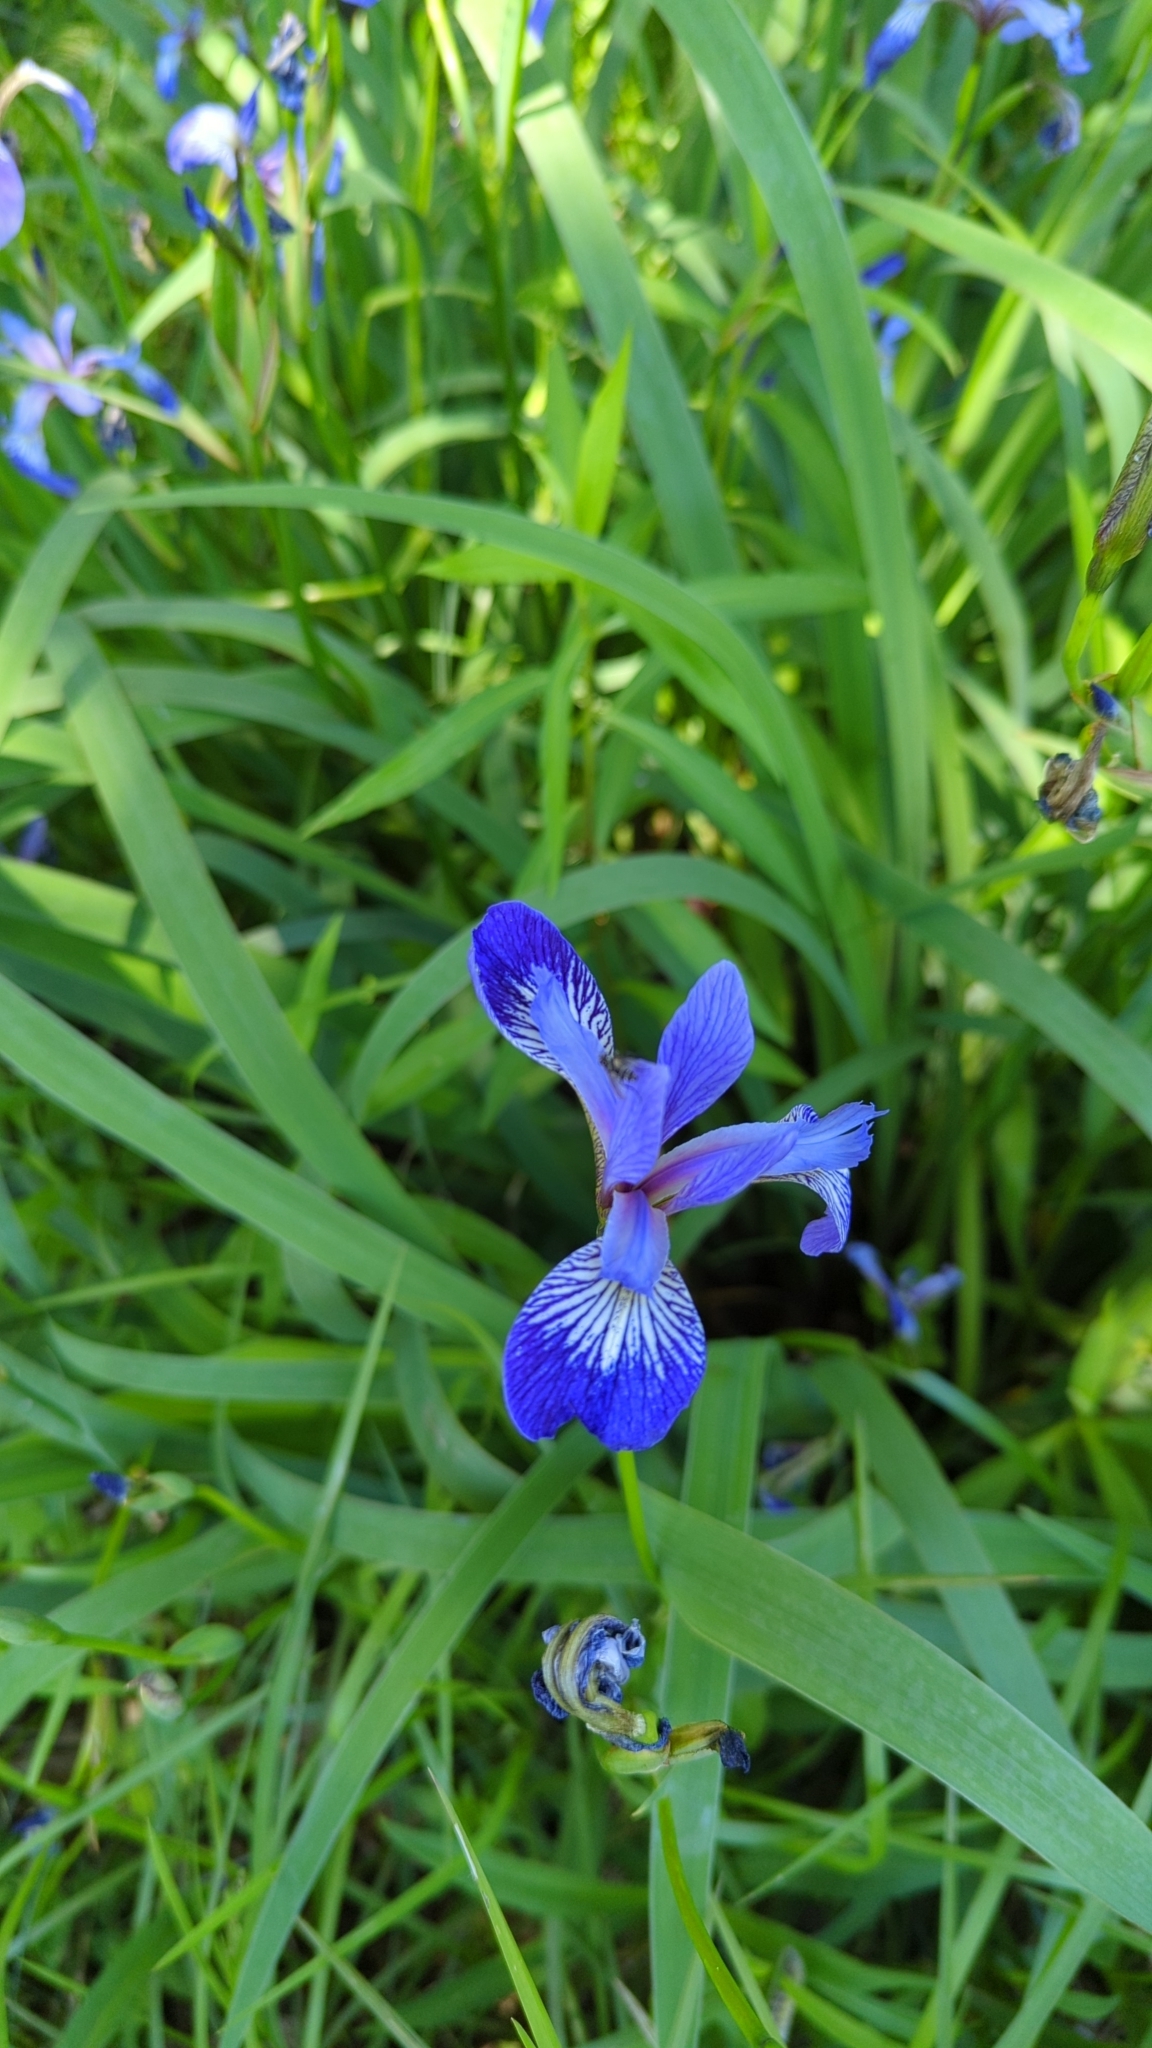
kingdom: Plantae
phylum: Tracheophyta
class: Liliopsida
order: Asparagales
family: Iridaceae
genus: Iris
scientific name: Iris versicolor
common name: Purple iris
